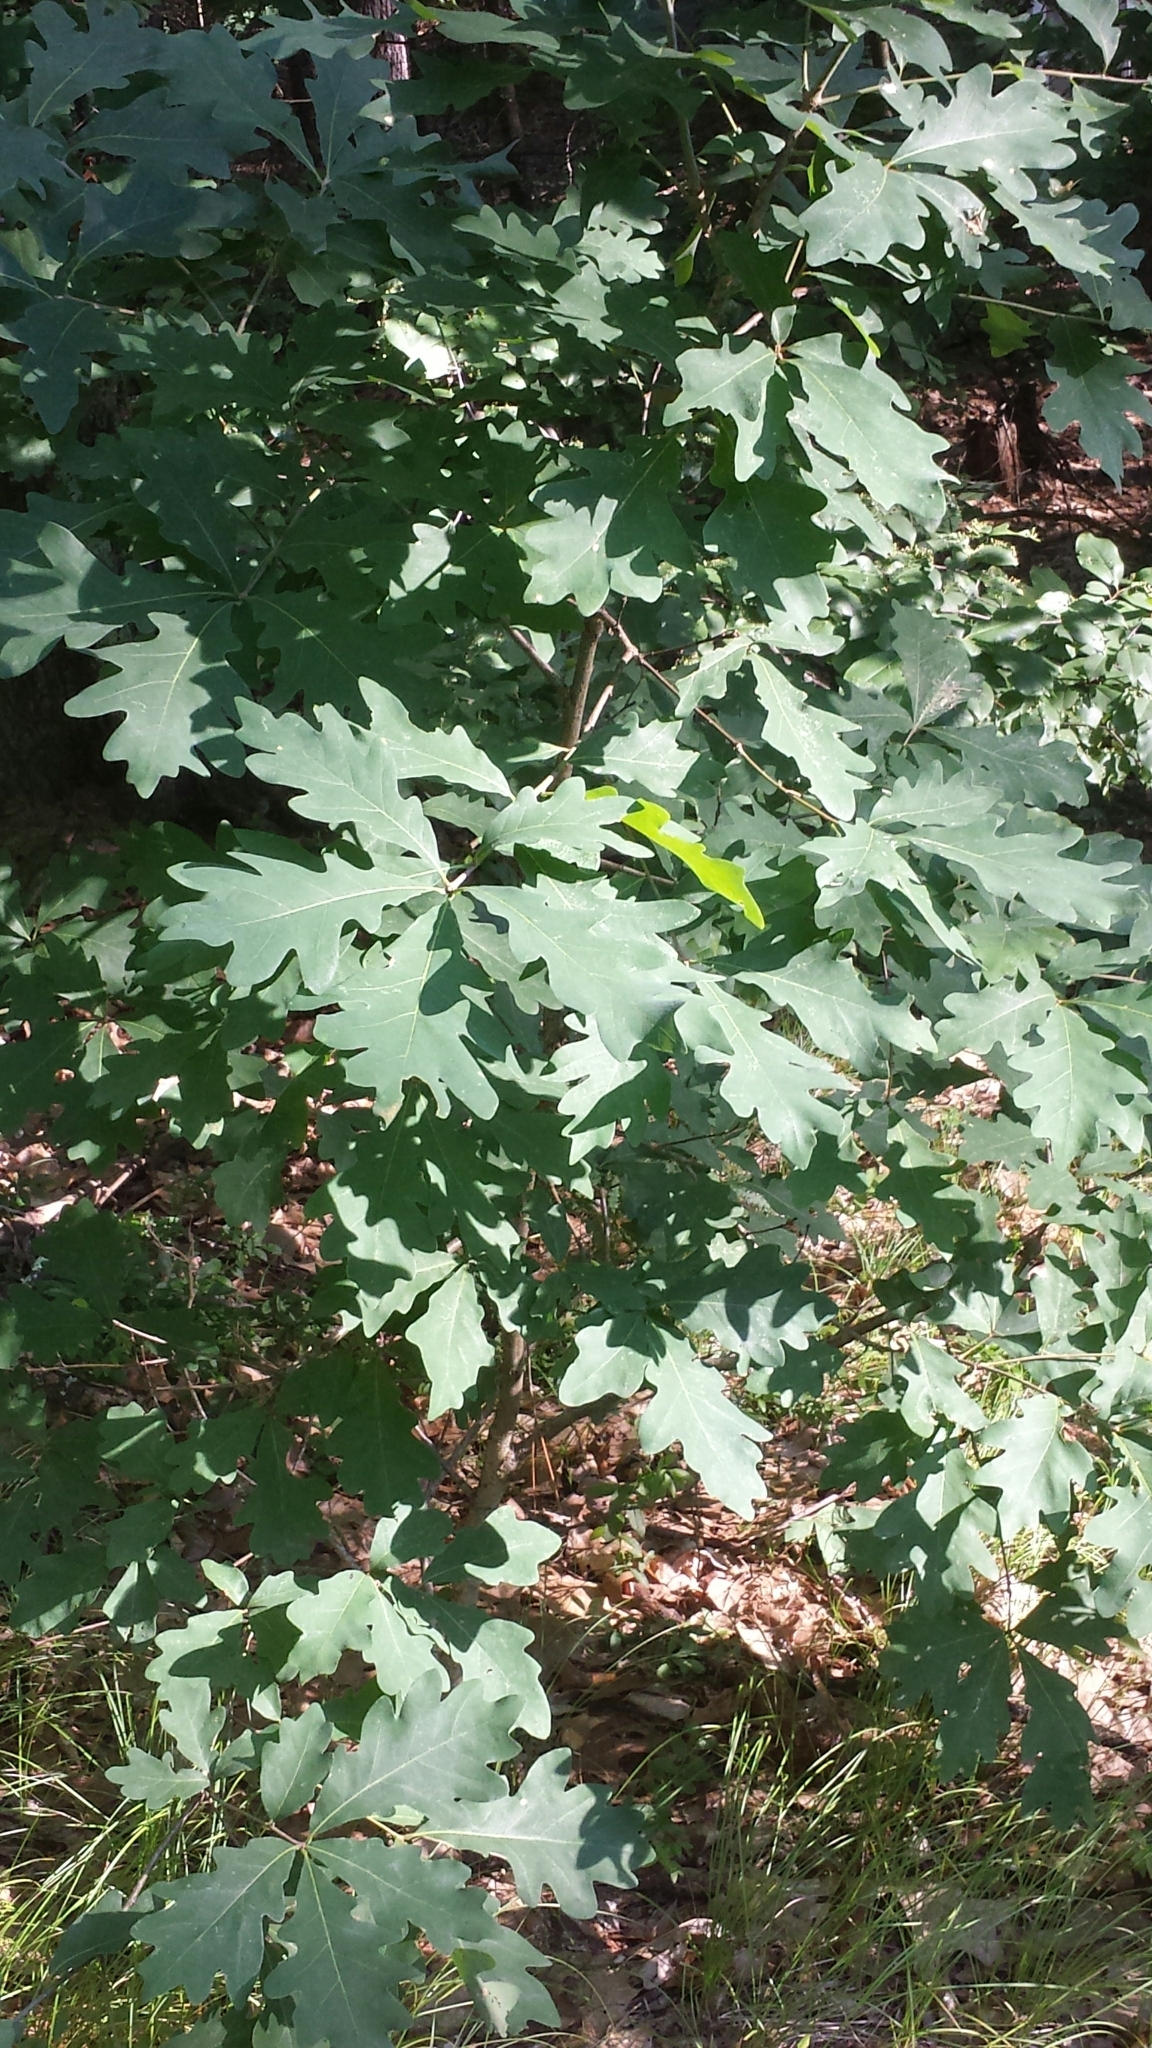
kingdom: Plantae
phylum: Tracheophyta
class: Magnoliopsida
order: Fagales
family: Fagaceae
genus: Quercus
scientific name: Quercus alba
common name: White oak
